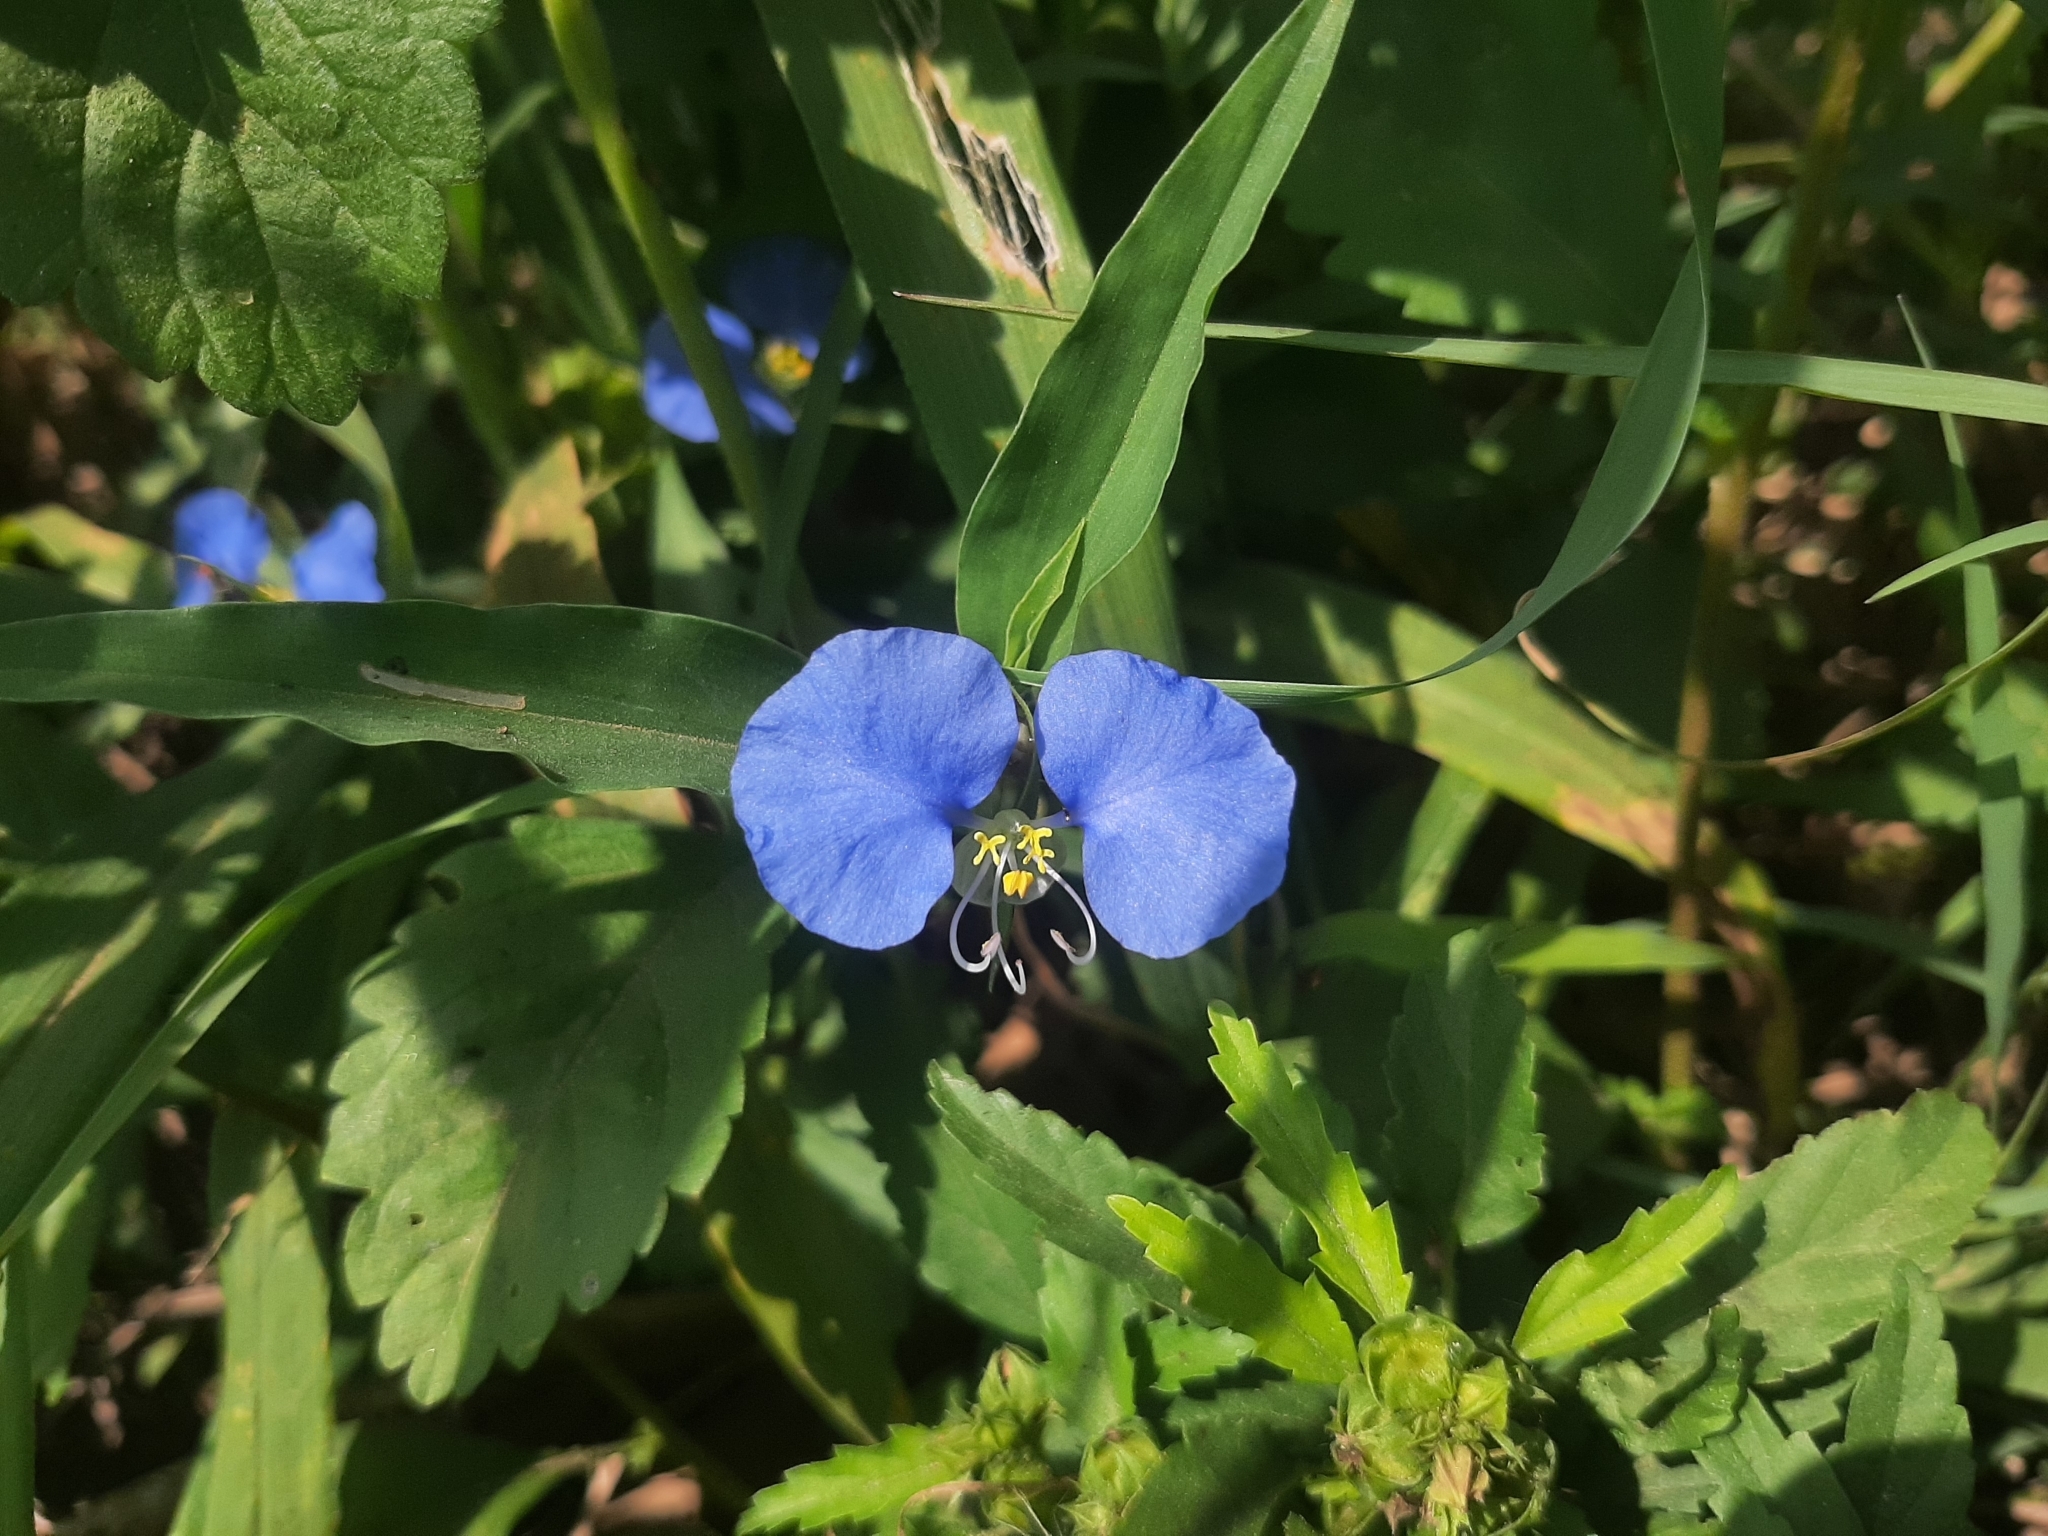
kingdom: Plantae
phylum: Tracheophyta
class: Liliopsida
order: Commelinales
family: Commelinaceae
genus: Commelina
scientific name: Commelina erecta
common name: Blousel blommetjie
